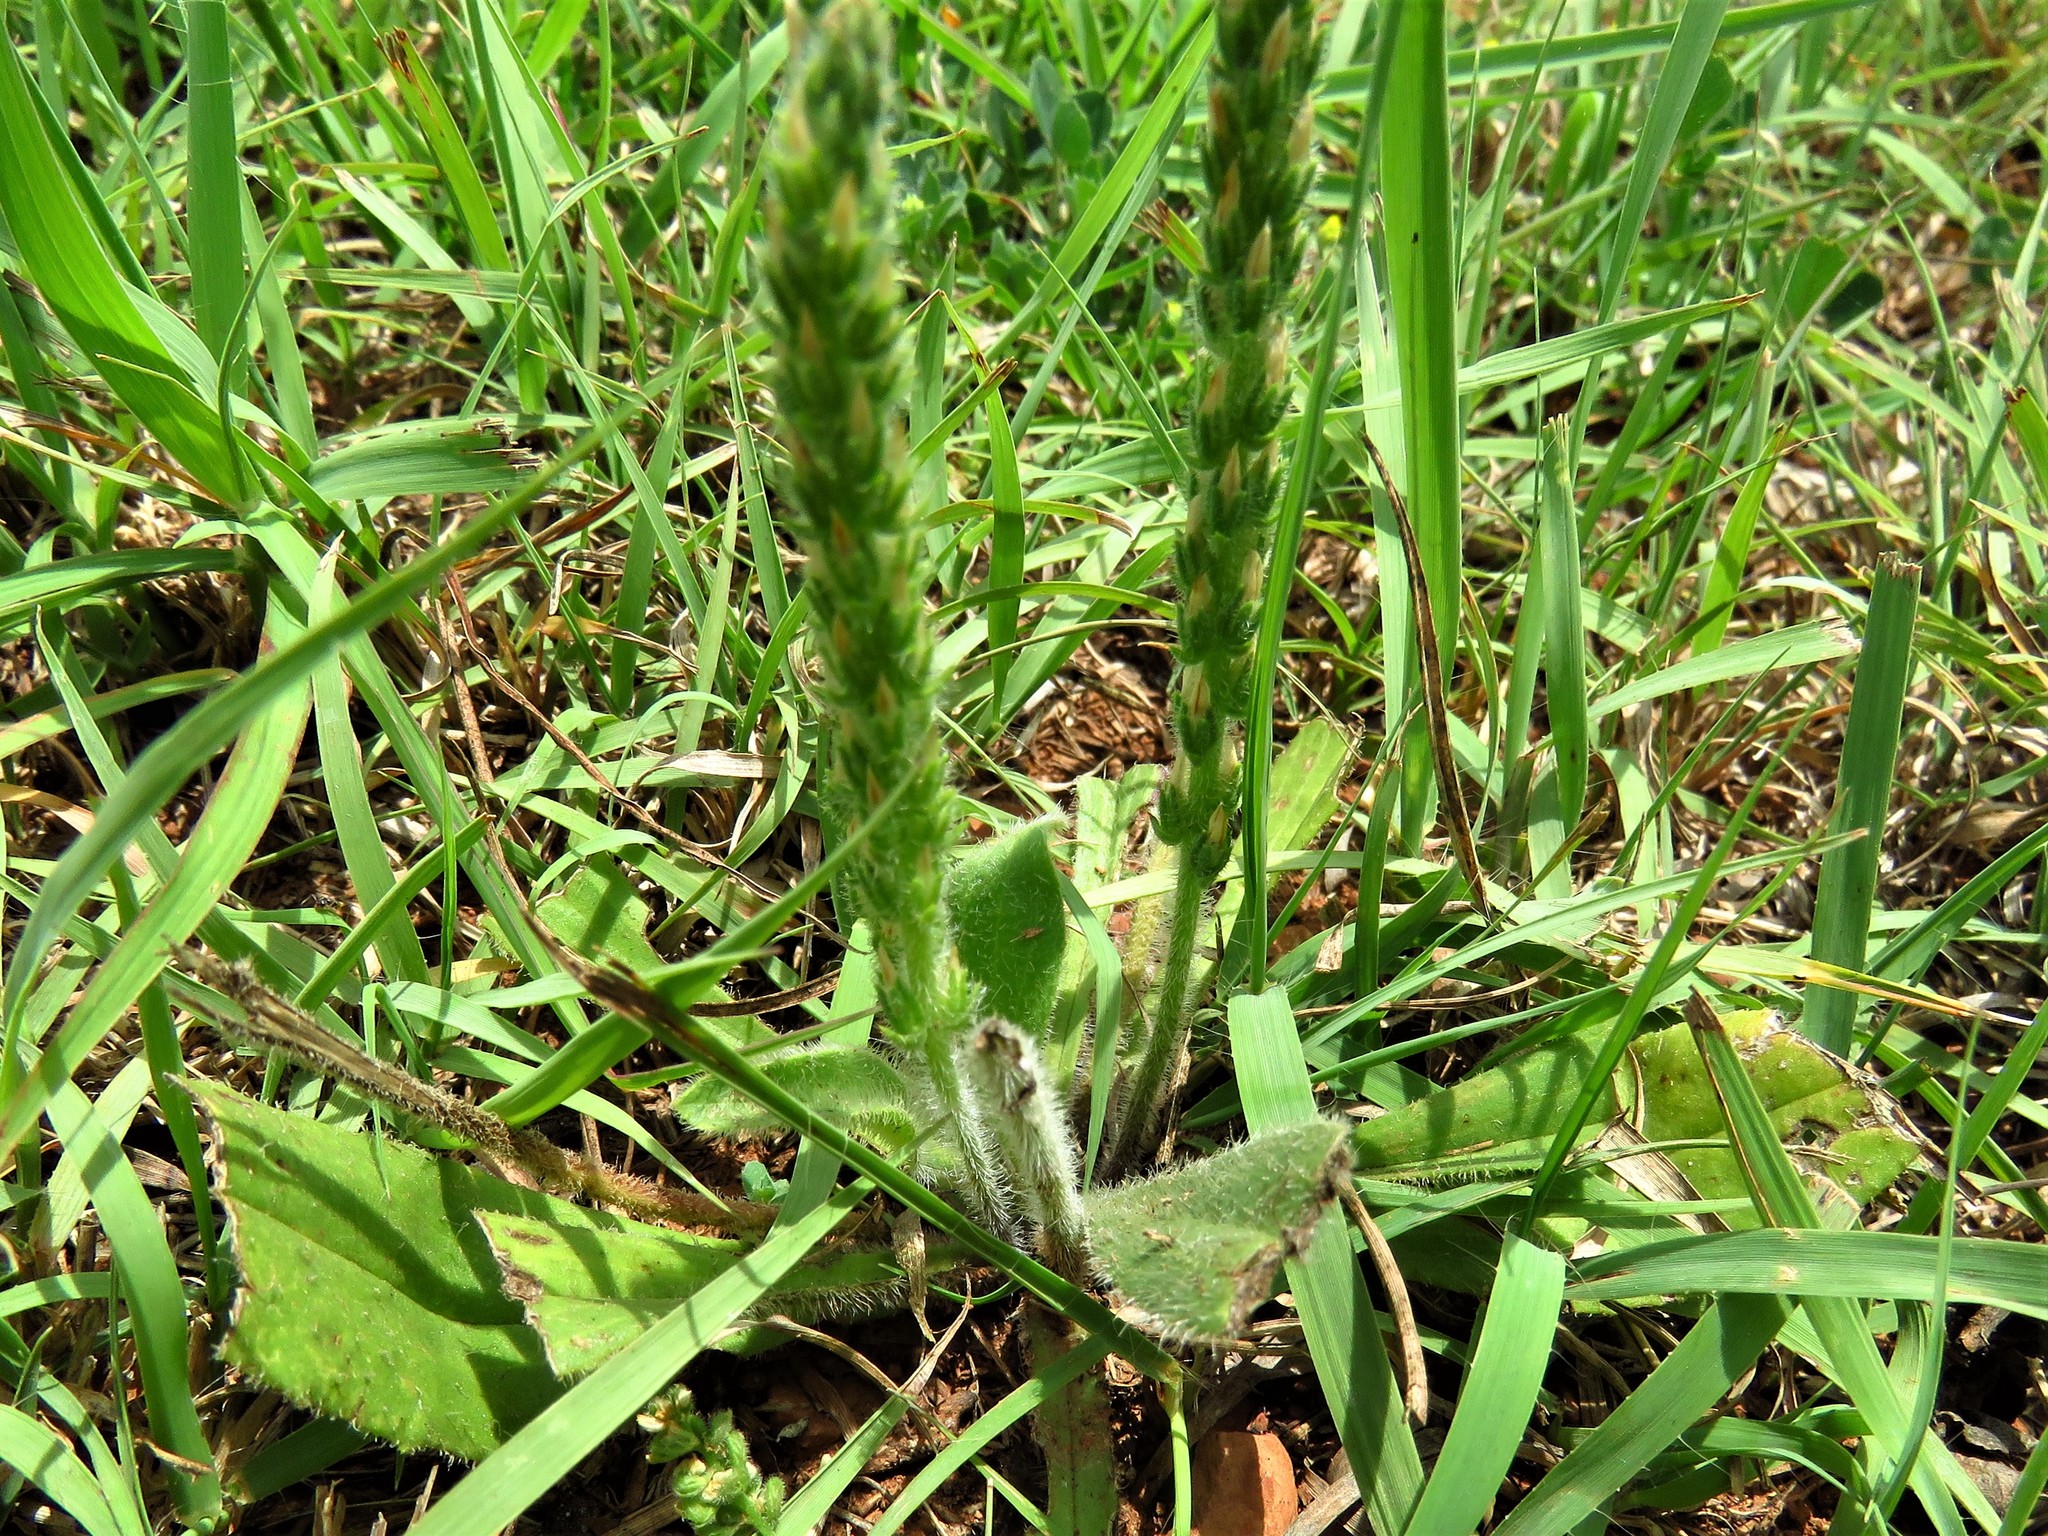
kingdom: Plantae
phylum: Tracheophyta
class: Magnoliopsida
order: Lamiales
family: Plantaginaceae
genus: Plantago
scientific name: Plantago rhodosperma
